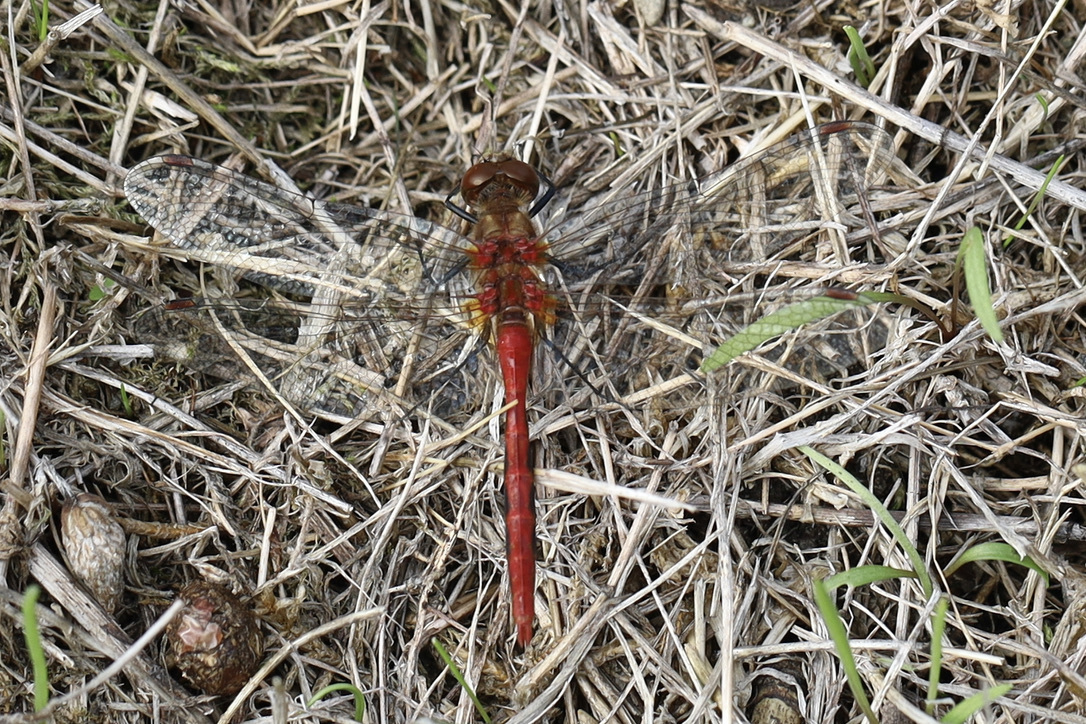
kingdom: Animalia
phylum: Arthropoda
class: Insecta
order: Odonata
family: Libellulidae
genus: Sympetrum
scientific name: Sympetrum pallipes
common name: Striped meadowhawk
